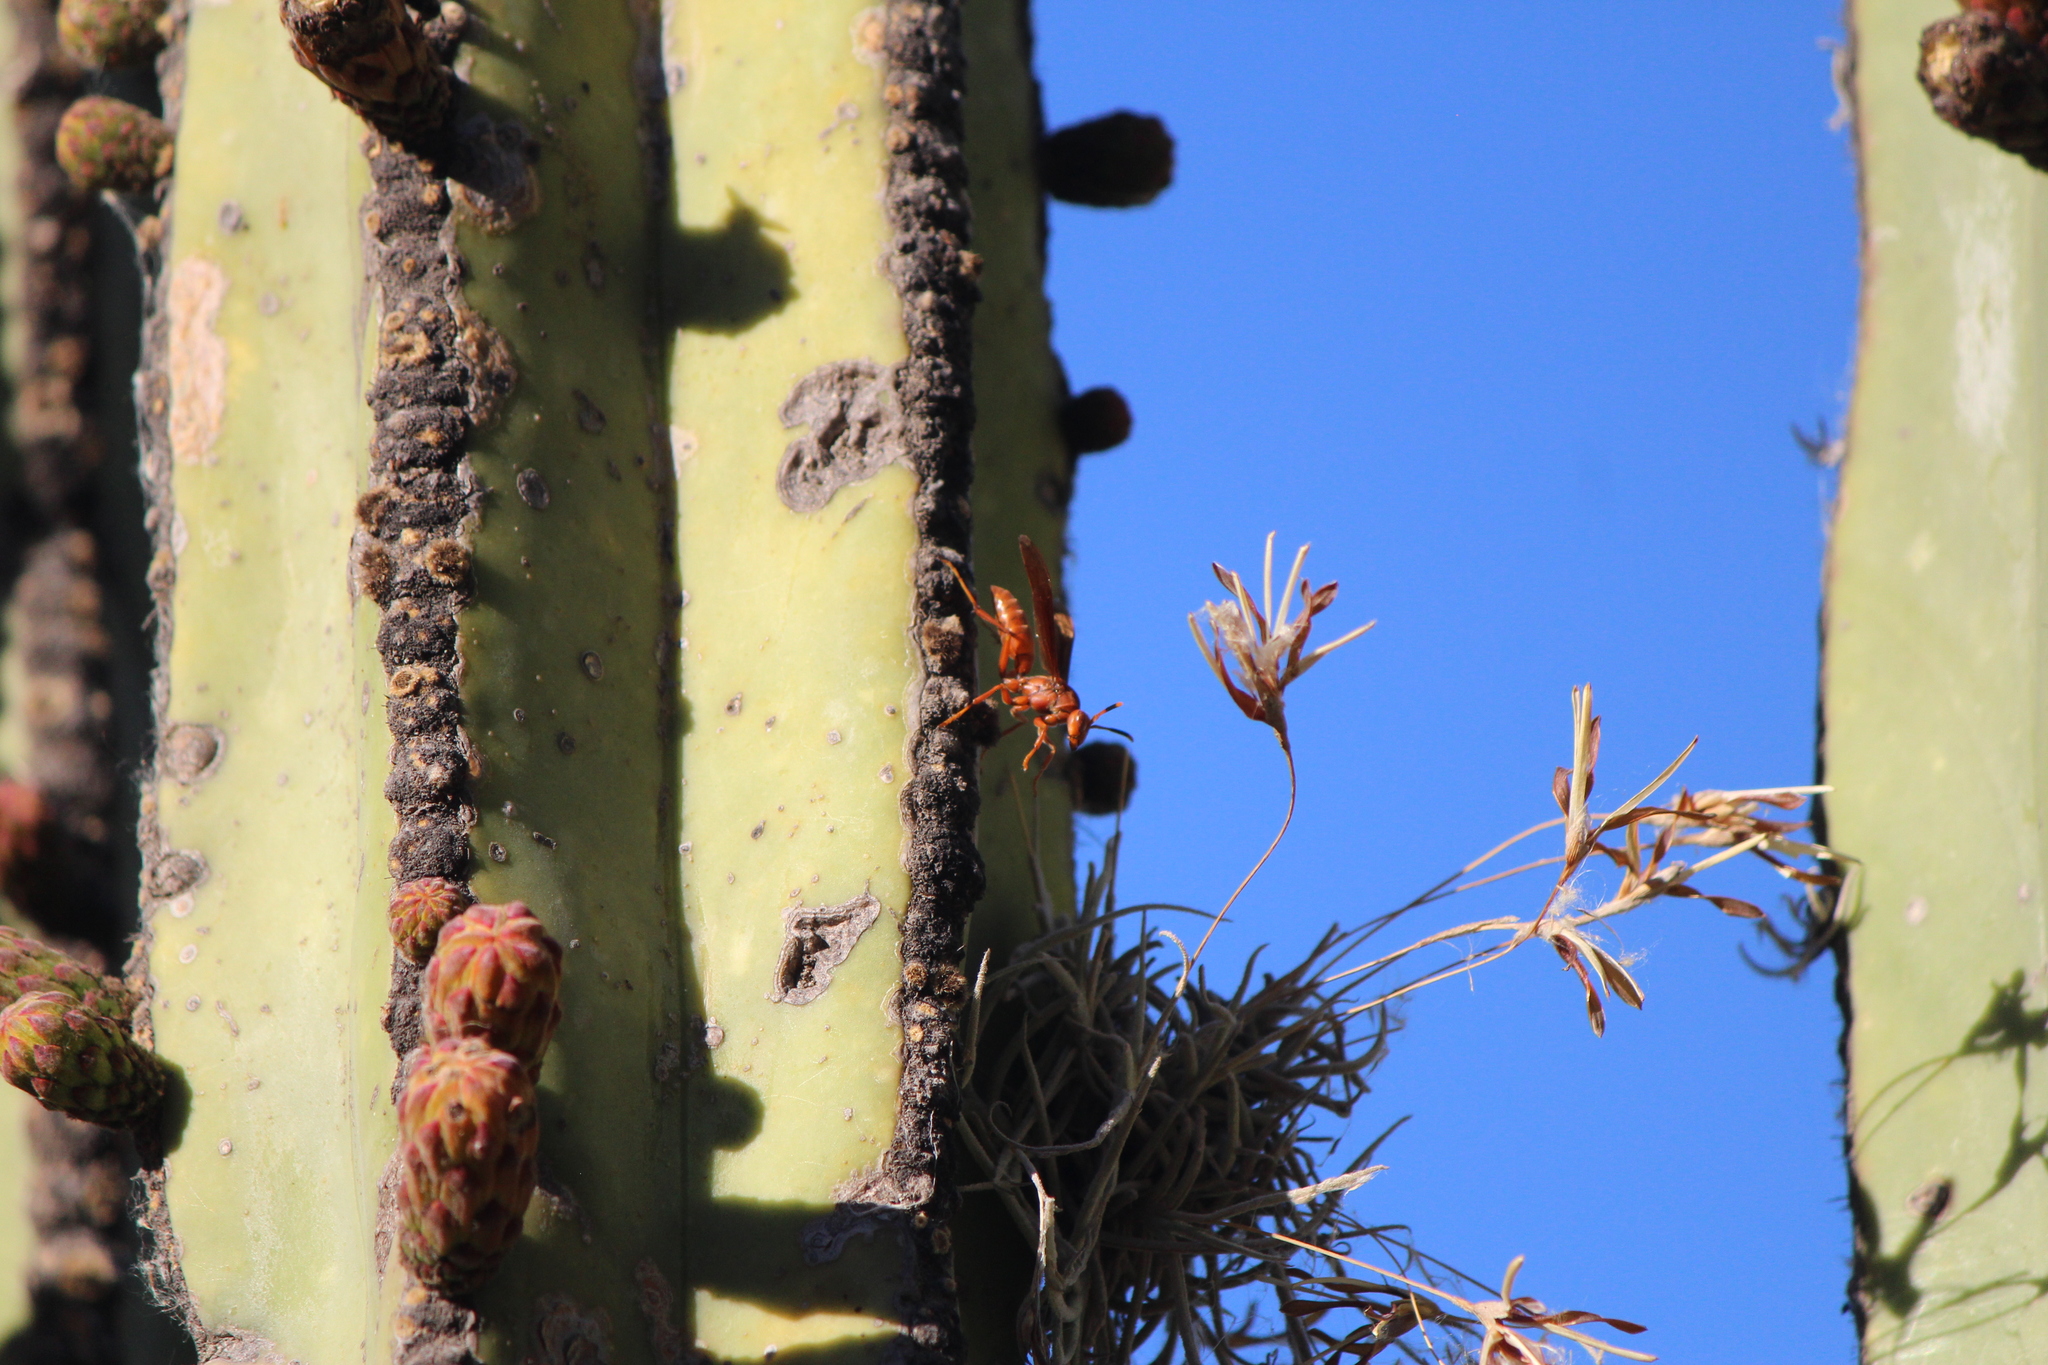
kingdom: Animalia
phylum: Arthropoda
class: Insecta
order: Hymenoptera
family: Eumenidae
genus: Polistes
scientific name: Polistes canadensis
